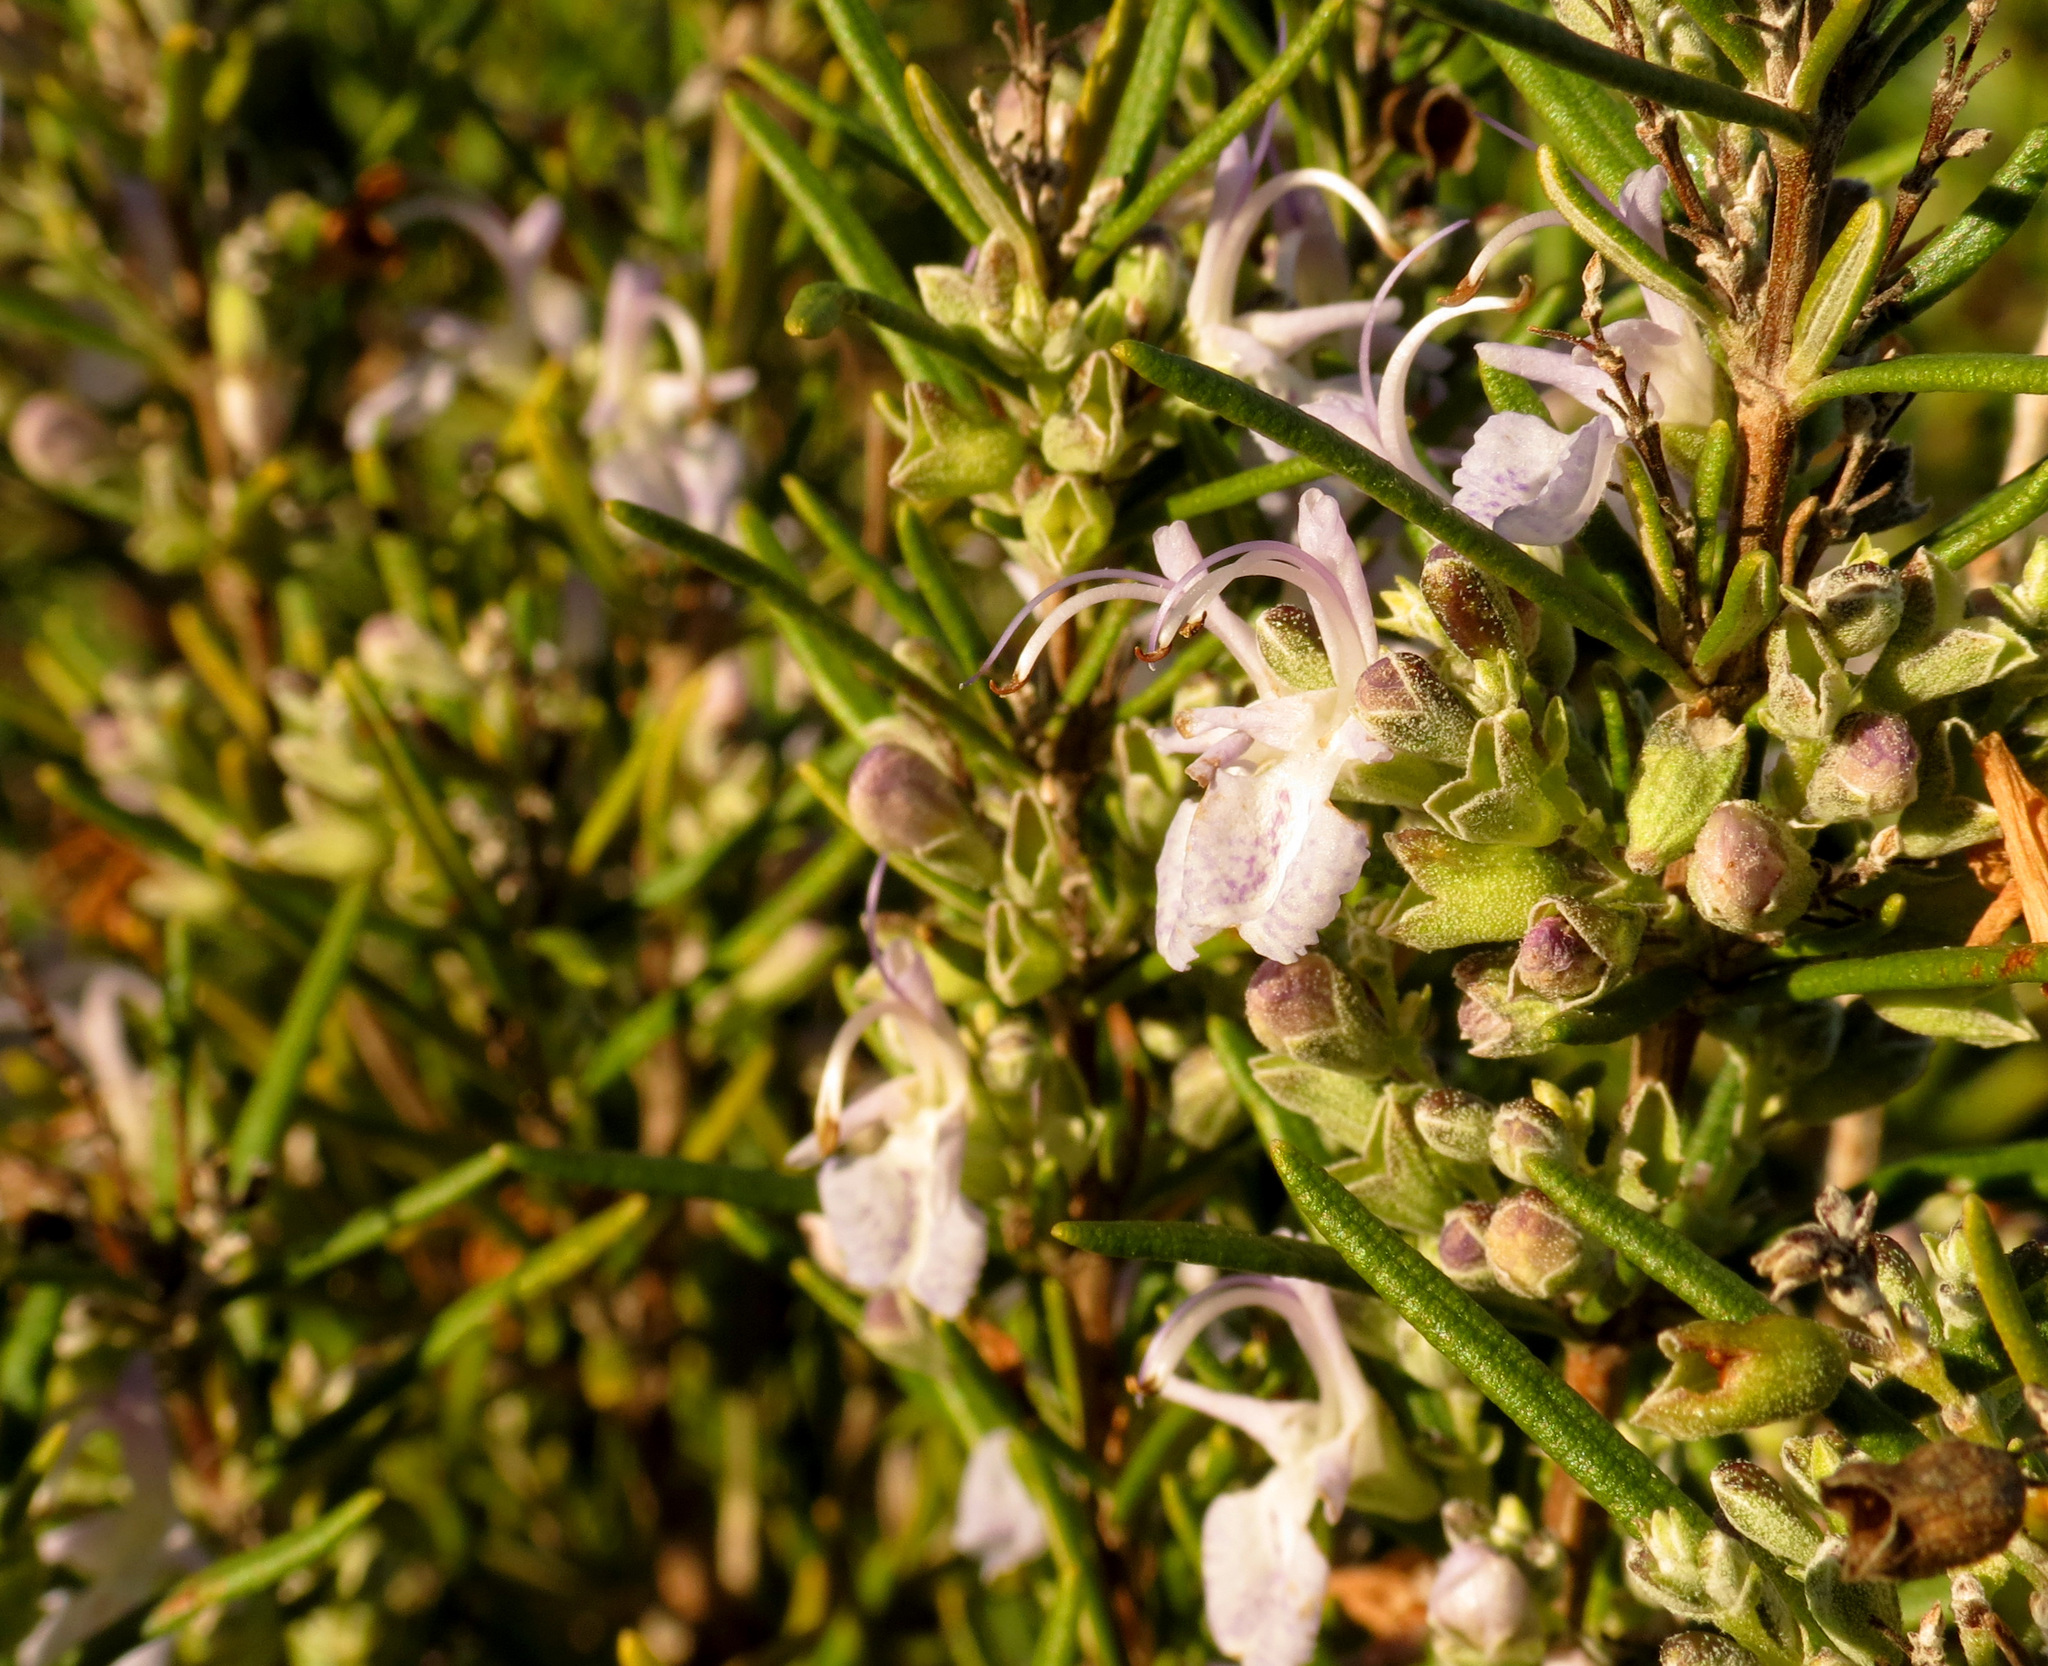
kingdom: Plantae
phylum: Tracheophyta
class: Magnoliopsida
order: Lamiales
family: Lamiaceae
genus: Salvia
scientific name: Salvia rosmarinus
